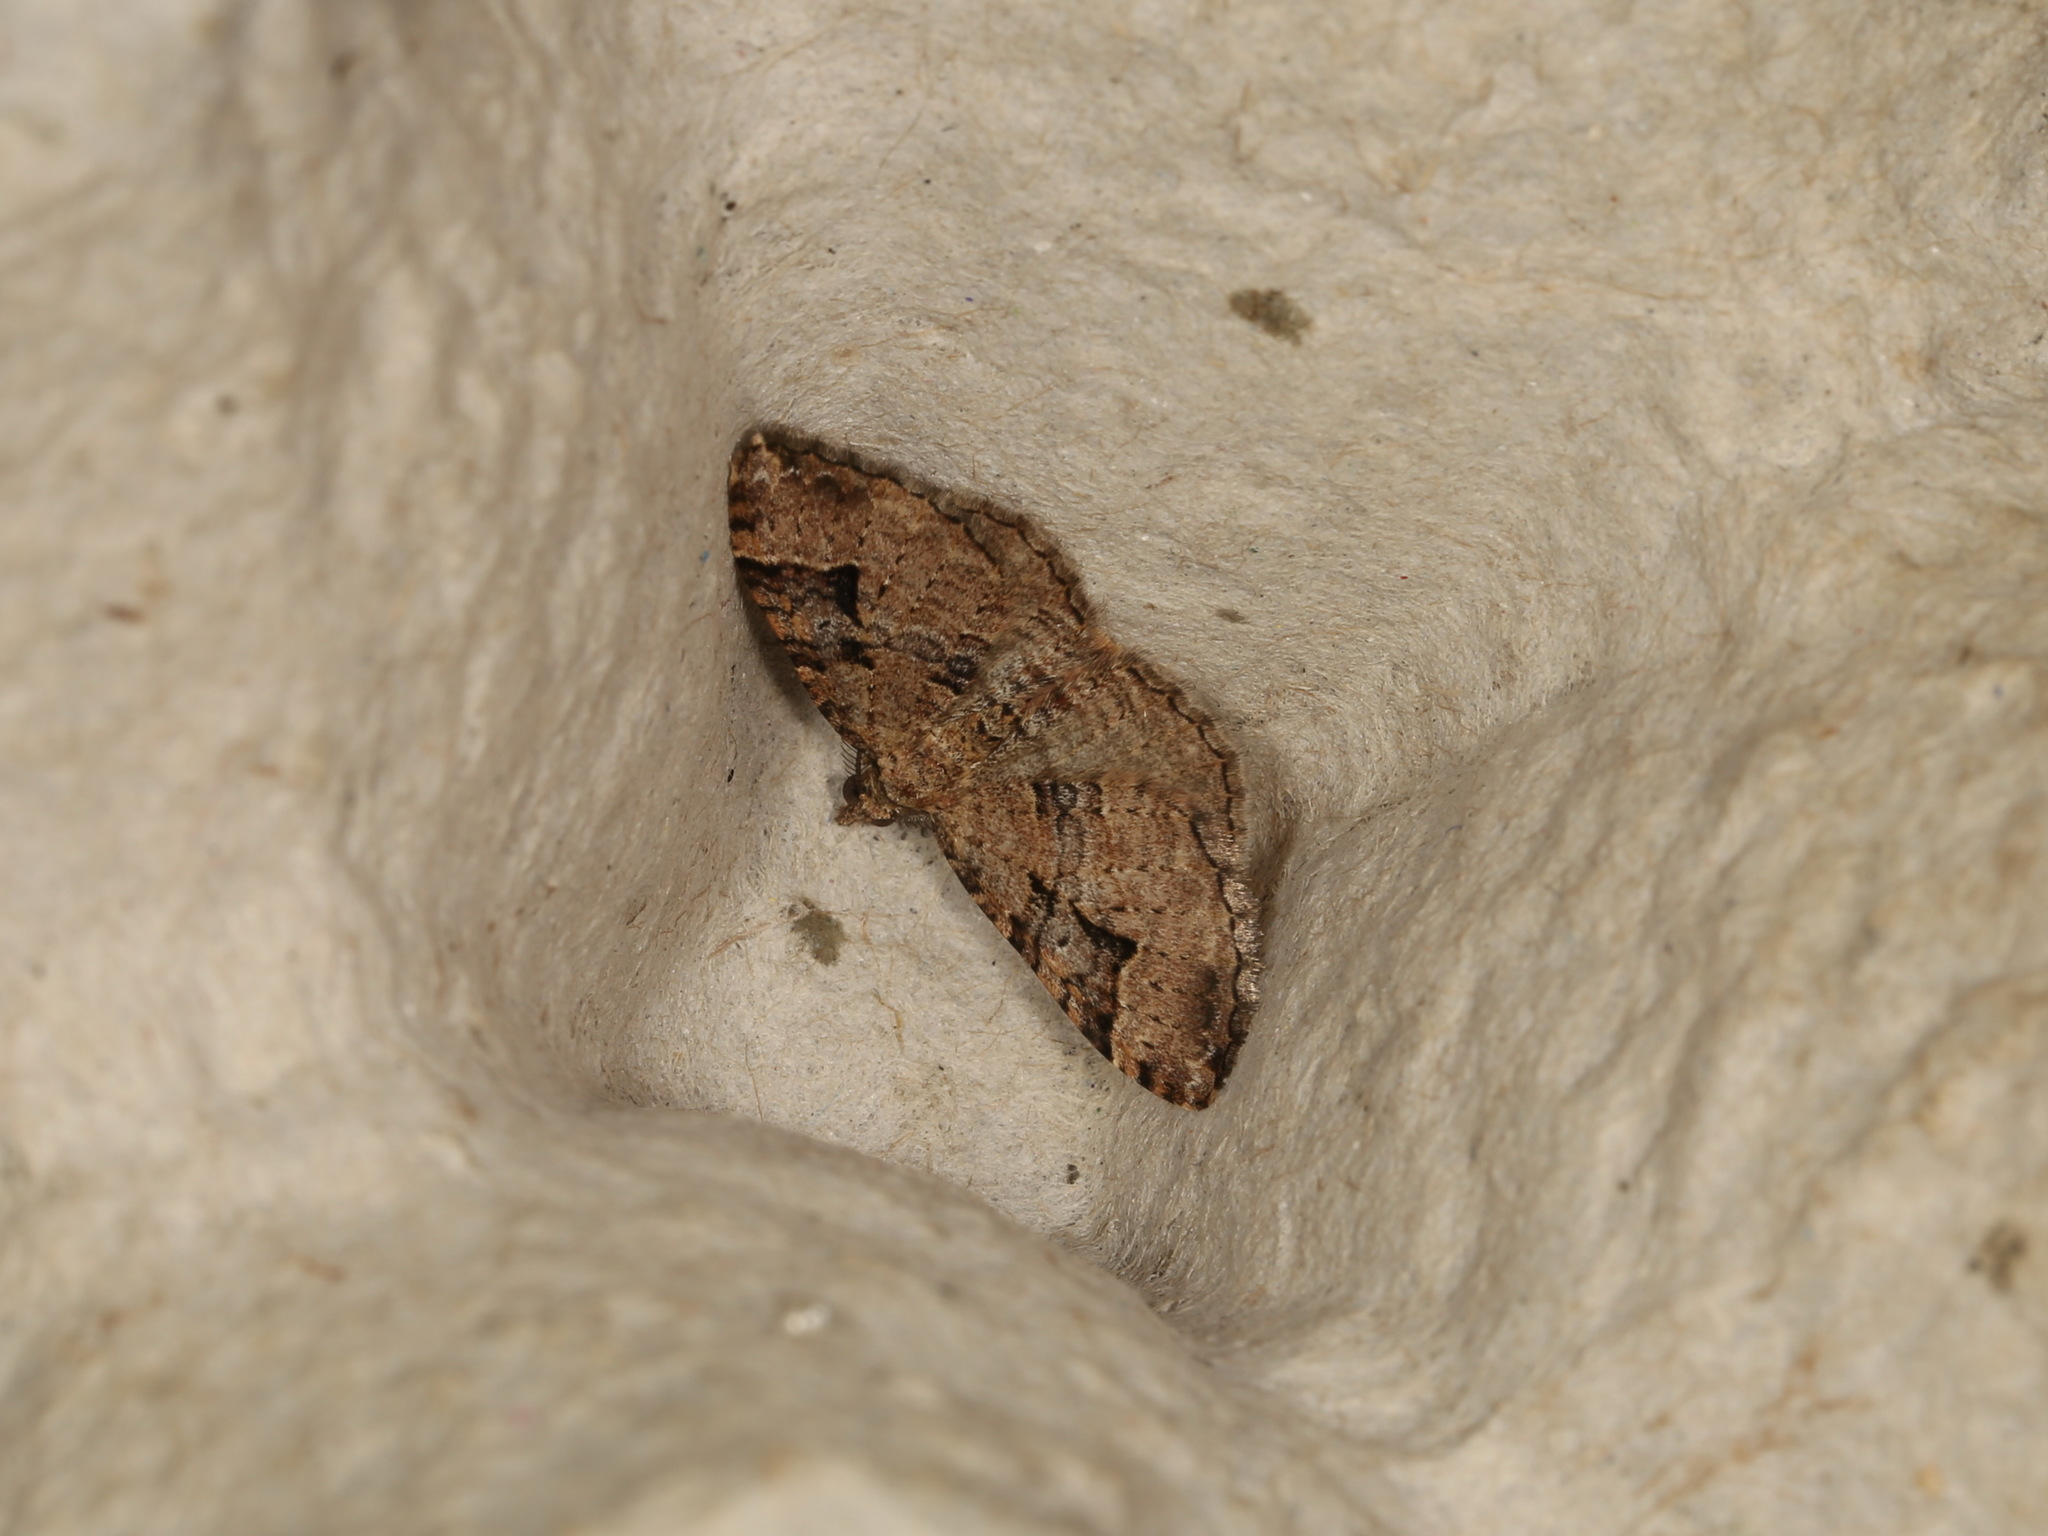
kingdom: Animalia
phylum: Arthropoda
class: Insecta
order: Lepidoptera
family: Geometridae
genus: Epyaxa
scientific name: Epyaxa subidaria
